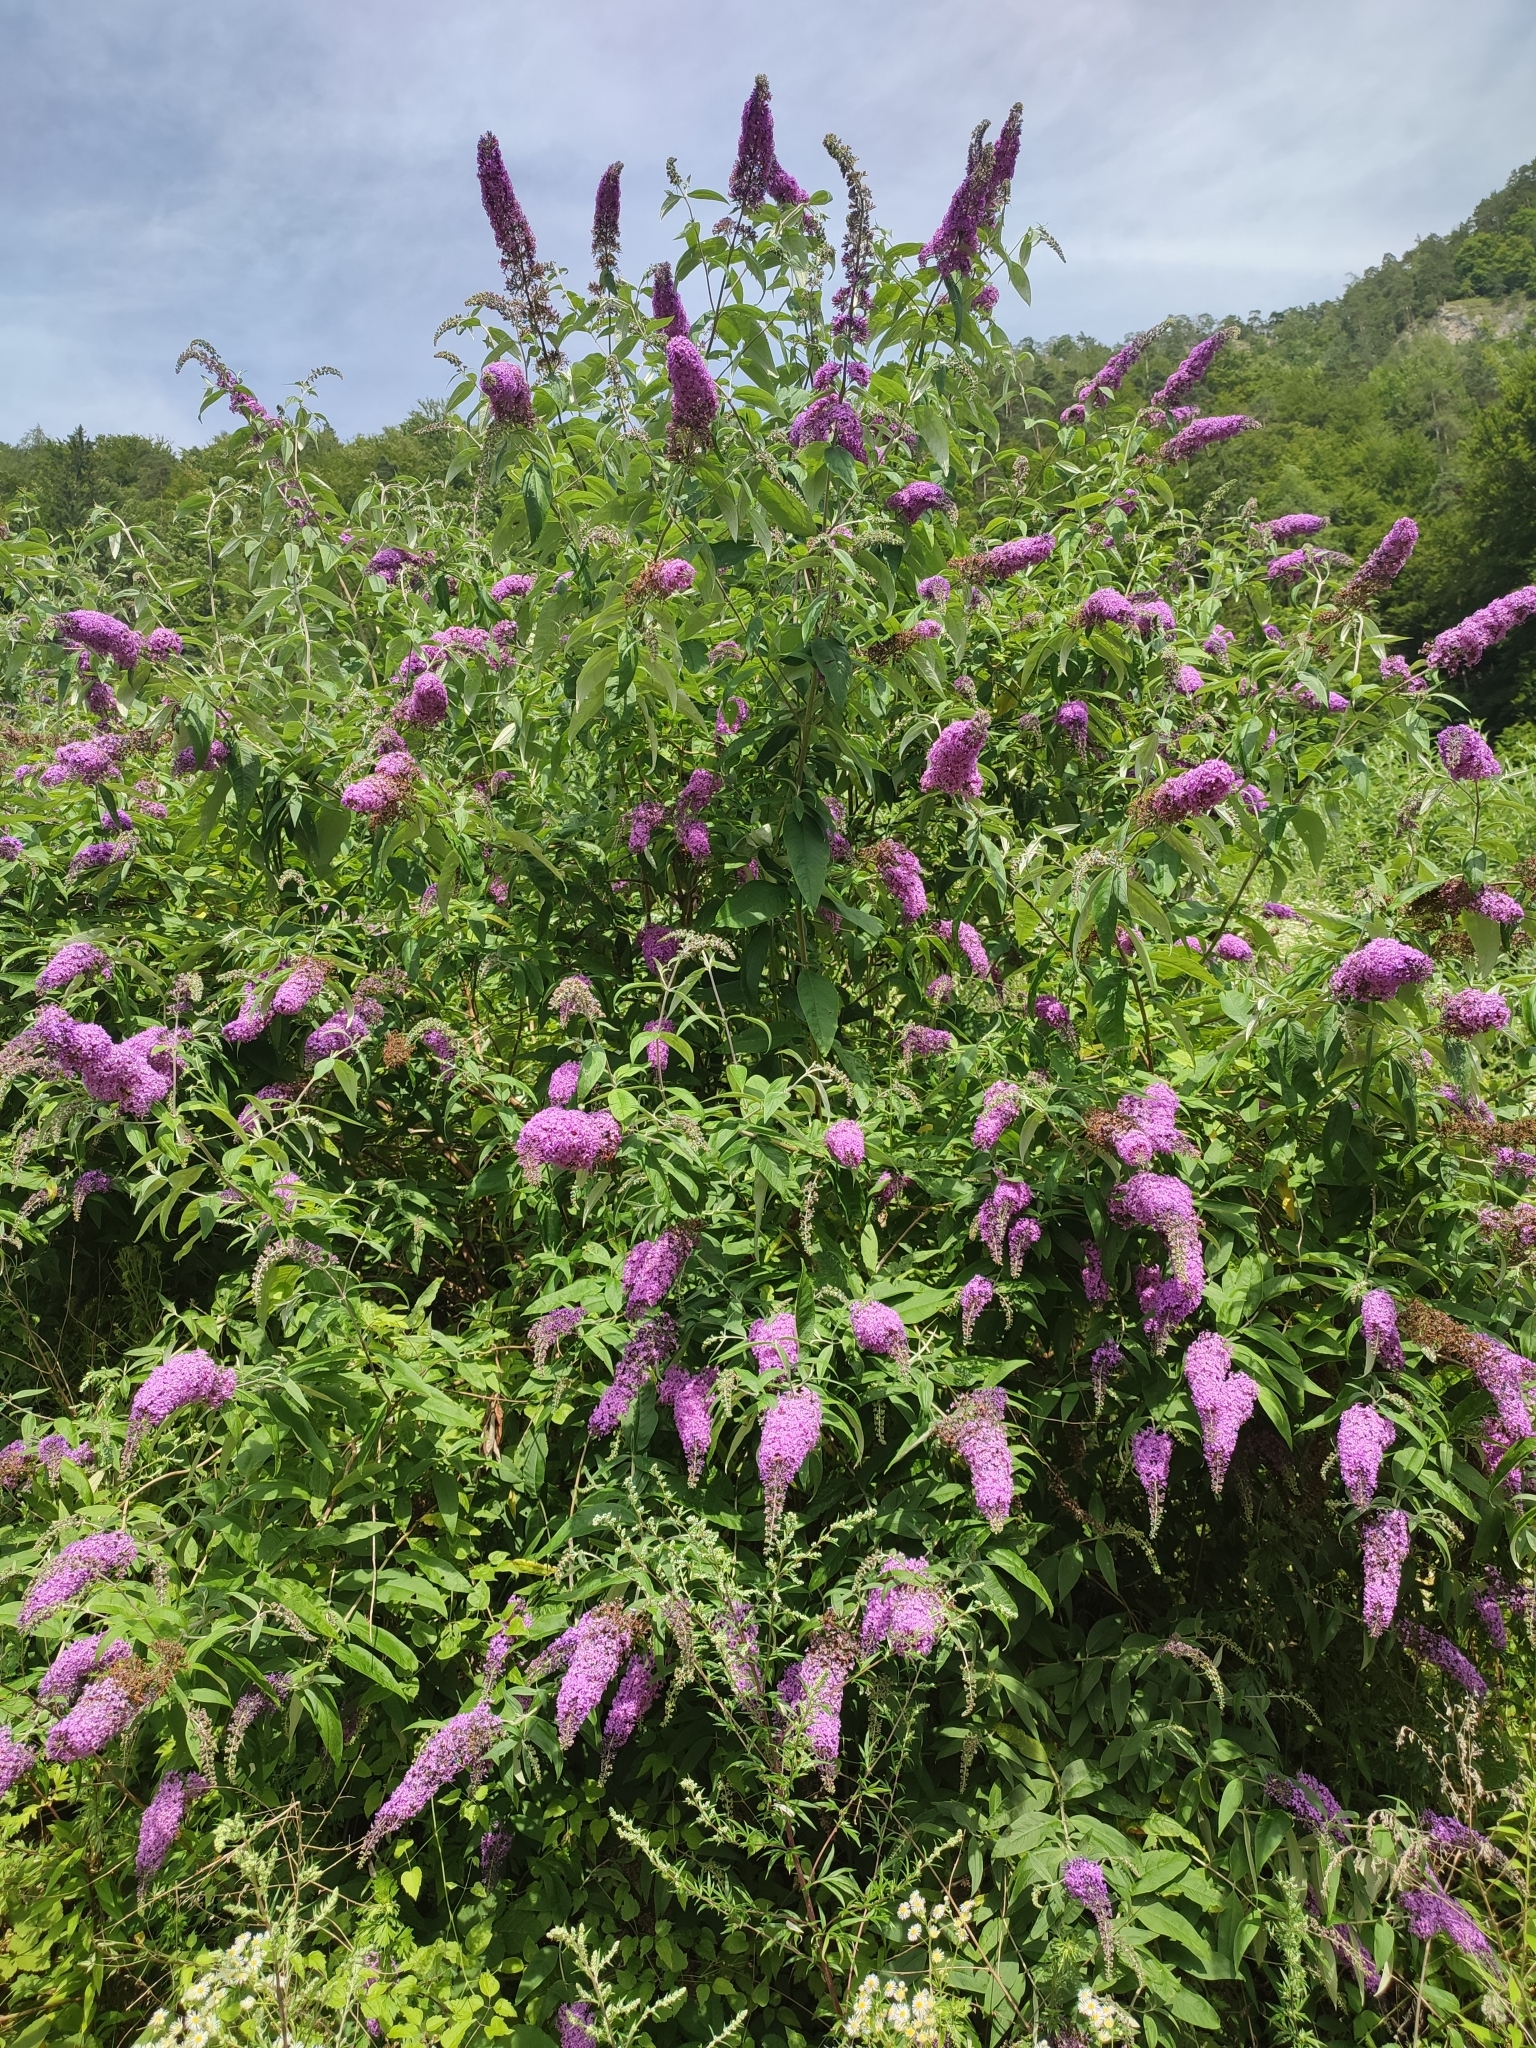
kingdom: Plantae
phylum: Tracheophyta
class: Magnoliopsida
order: Lamiales
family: Scrophulariaceae
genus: Buddleja
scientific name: Buddleja davidii
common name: Butterfly-bush
